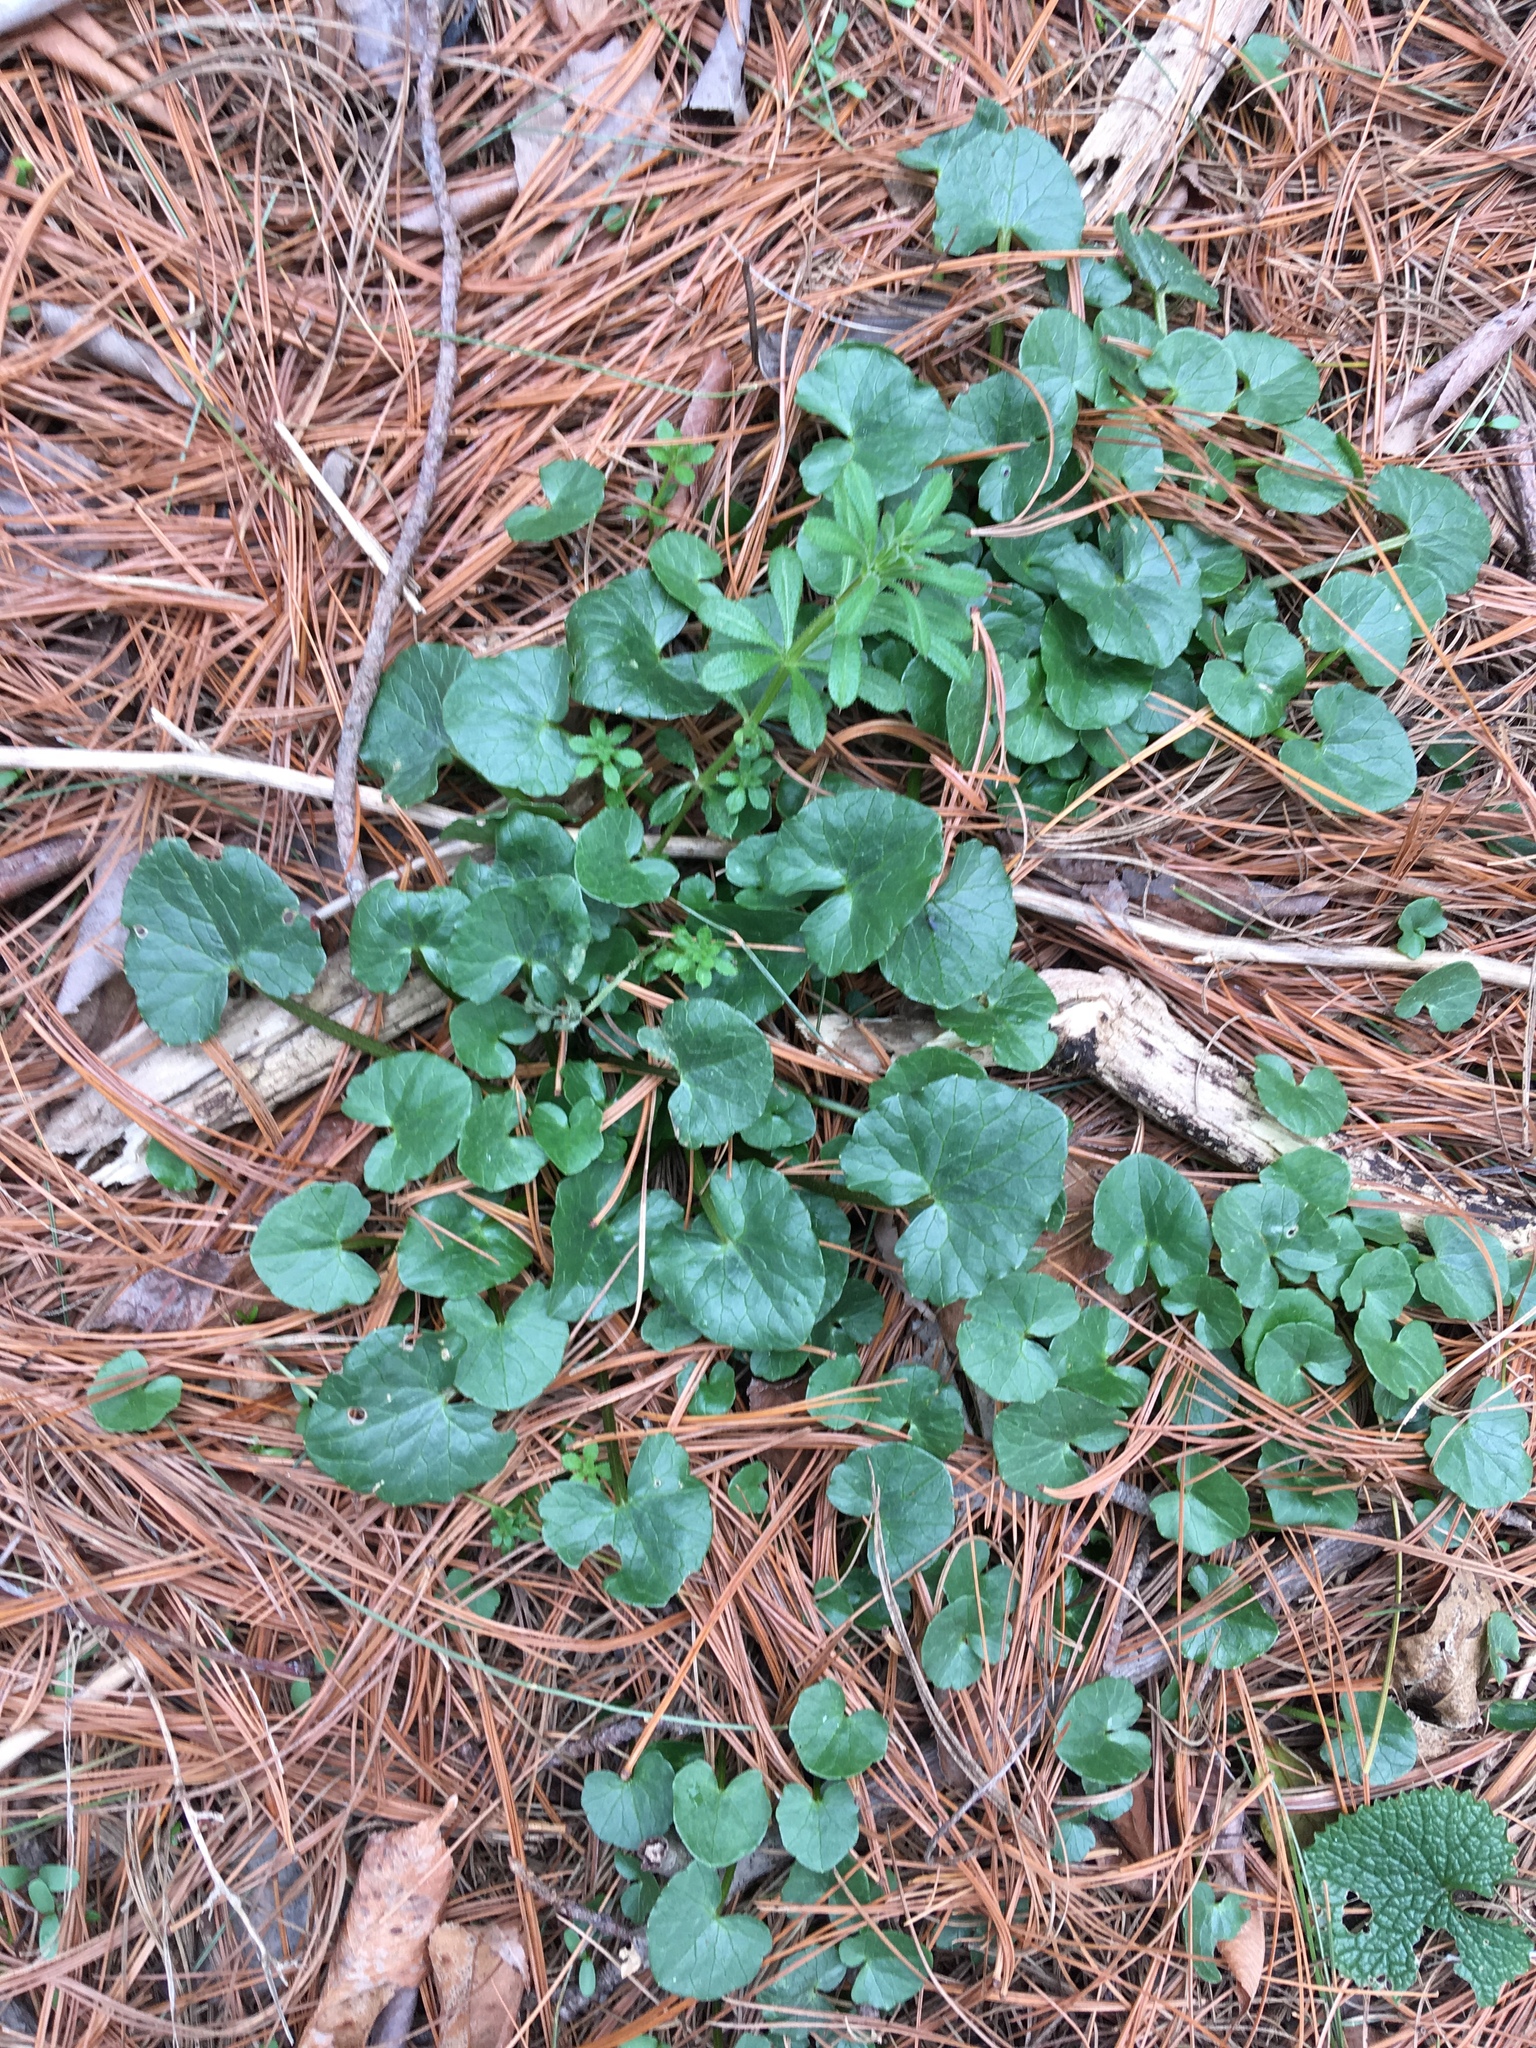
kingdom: Plantae
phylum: Tracheophyta
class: Magnoliopsida
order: Ranunculales
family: Ranunculaceae
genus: Ficaria
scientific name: Ficaria verna
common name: Lesser celandine
